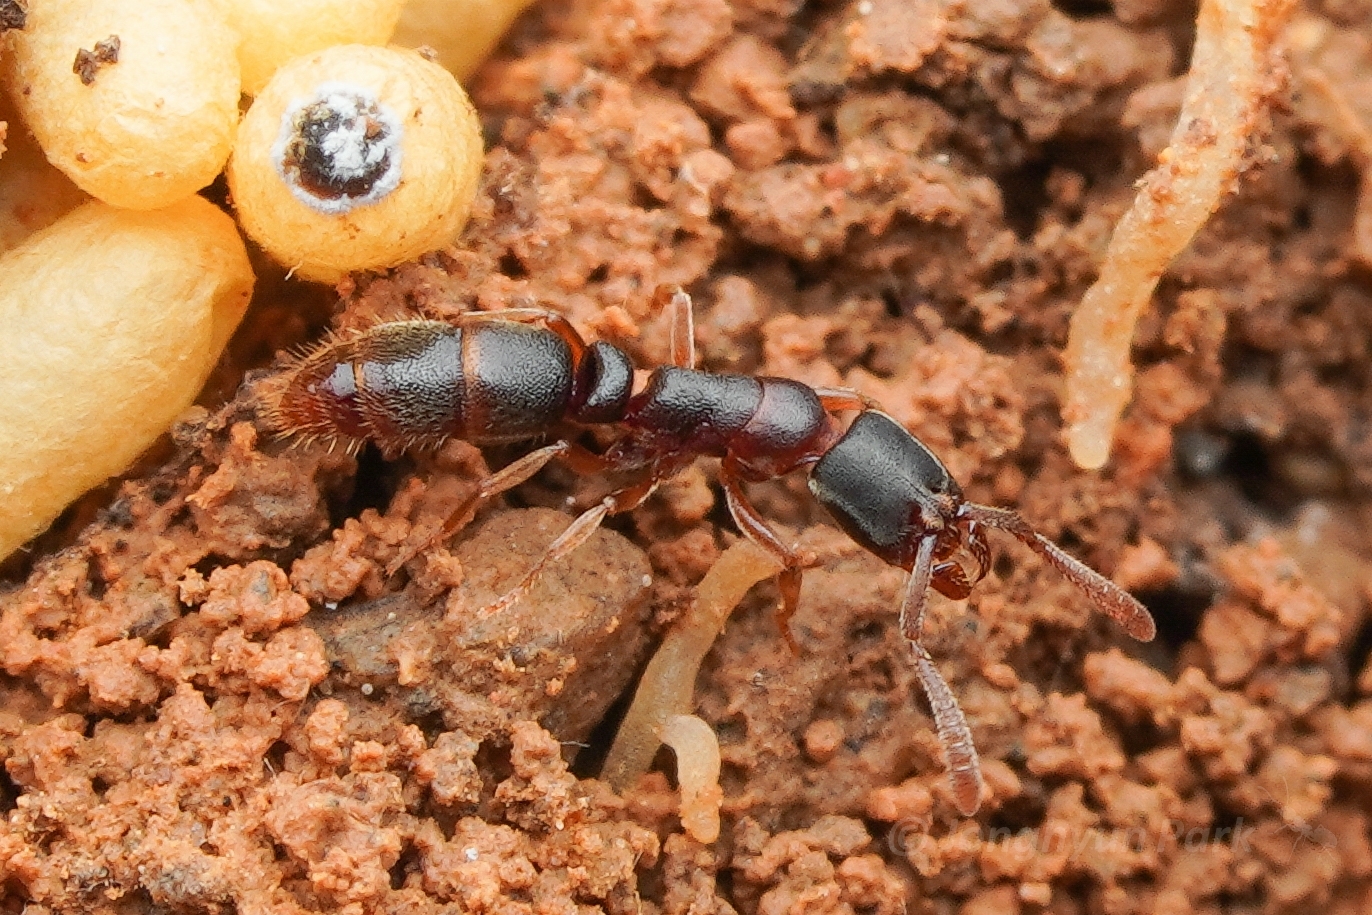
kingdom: Animalia
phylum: Arthropoda
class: Insecta
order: Hymenoptera
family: Formicidae
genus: Ponera
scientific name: Ponera scabra
